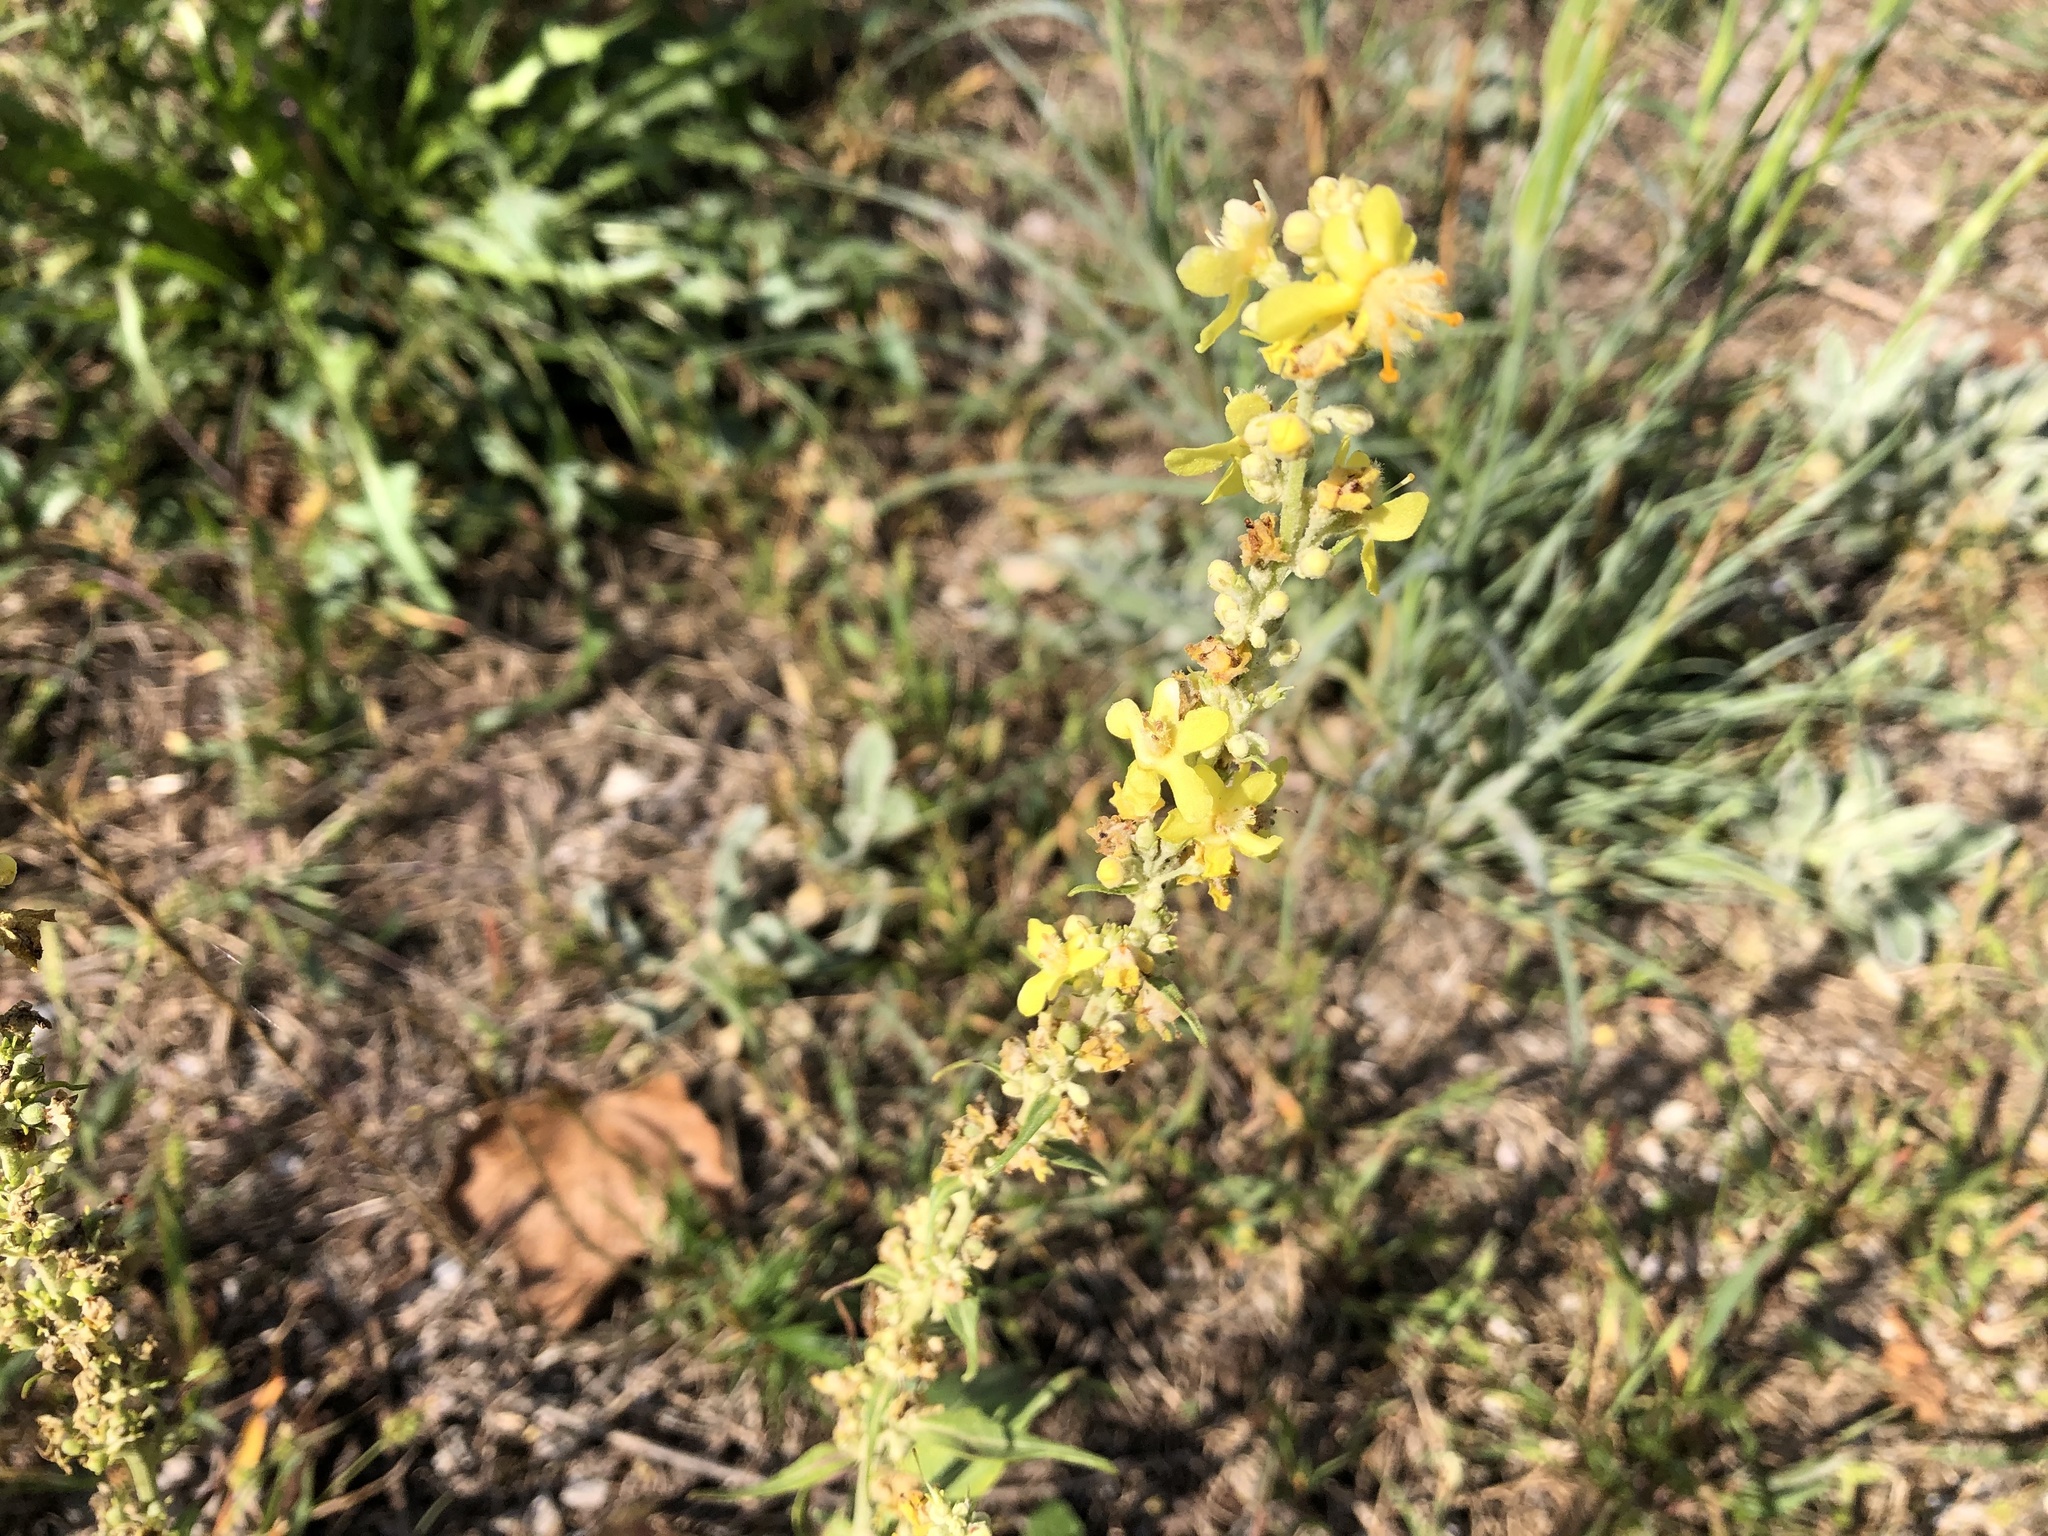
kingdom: Plantae
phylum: Tracheophyta
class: Magnoliopsida
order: Lamiales
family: Scrophulariaceae
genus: Verbascum
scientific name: Verbascum lychnitis
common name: White mullein
